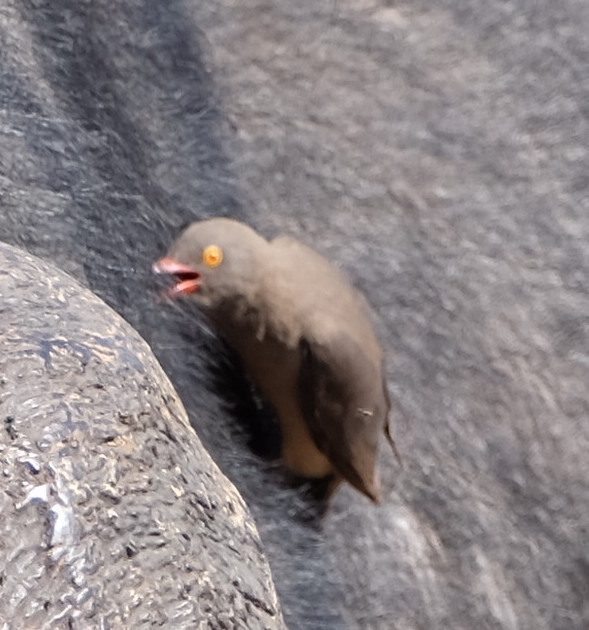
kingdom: Animalia
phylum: Chordata
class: Aves
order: Passeriformes
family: Buphagidae
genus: Buphagus
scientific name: Buphagus erythrorhynchus
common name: Red-billed oxpecker
